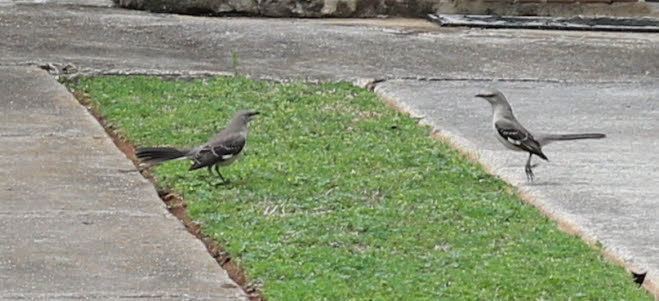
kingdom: Animalia
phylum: Chordata
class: Aves
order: Passeriformes
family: Mimidae
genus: Mimus
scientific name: Mimus polyglottos
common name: Northern mockingbird
